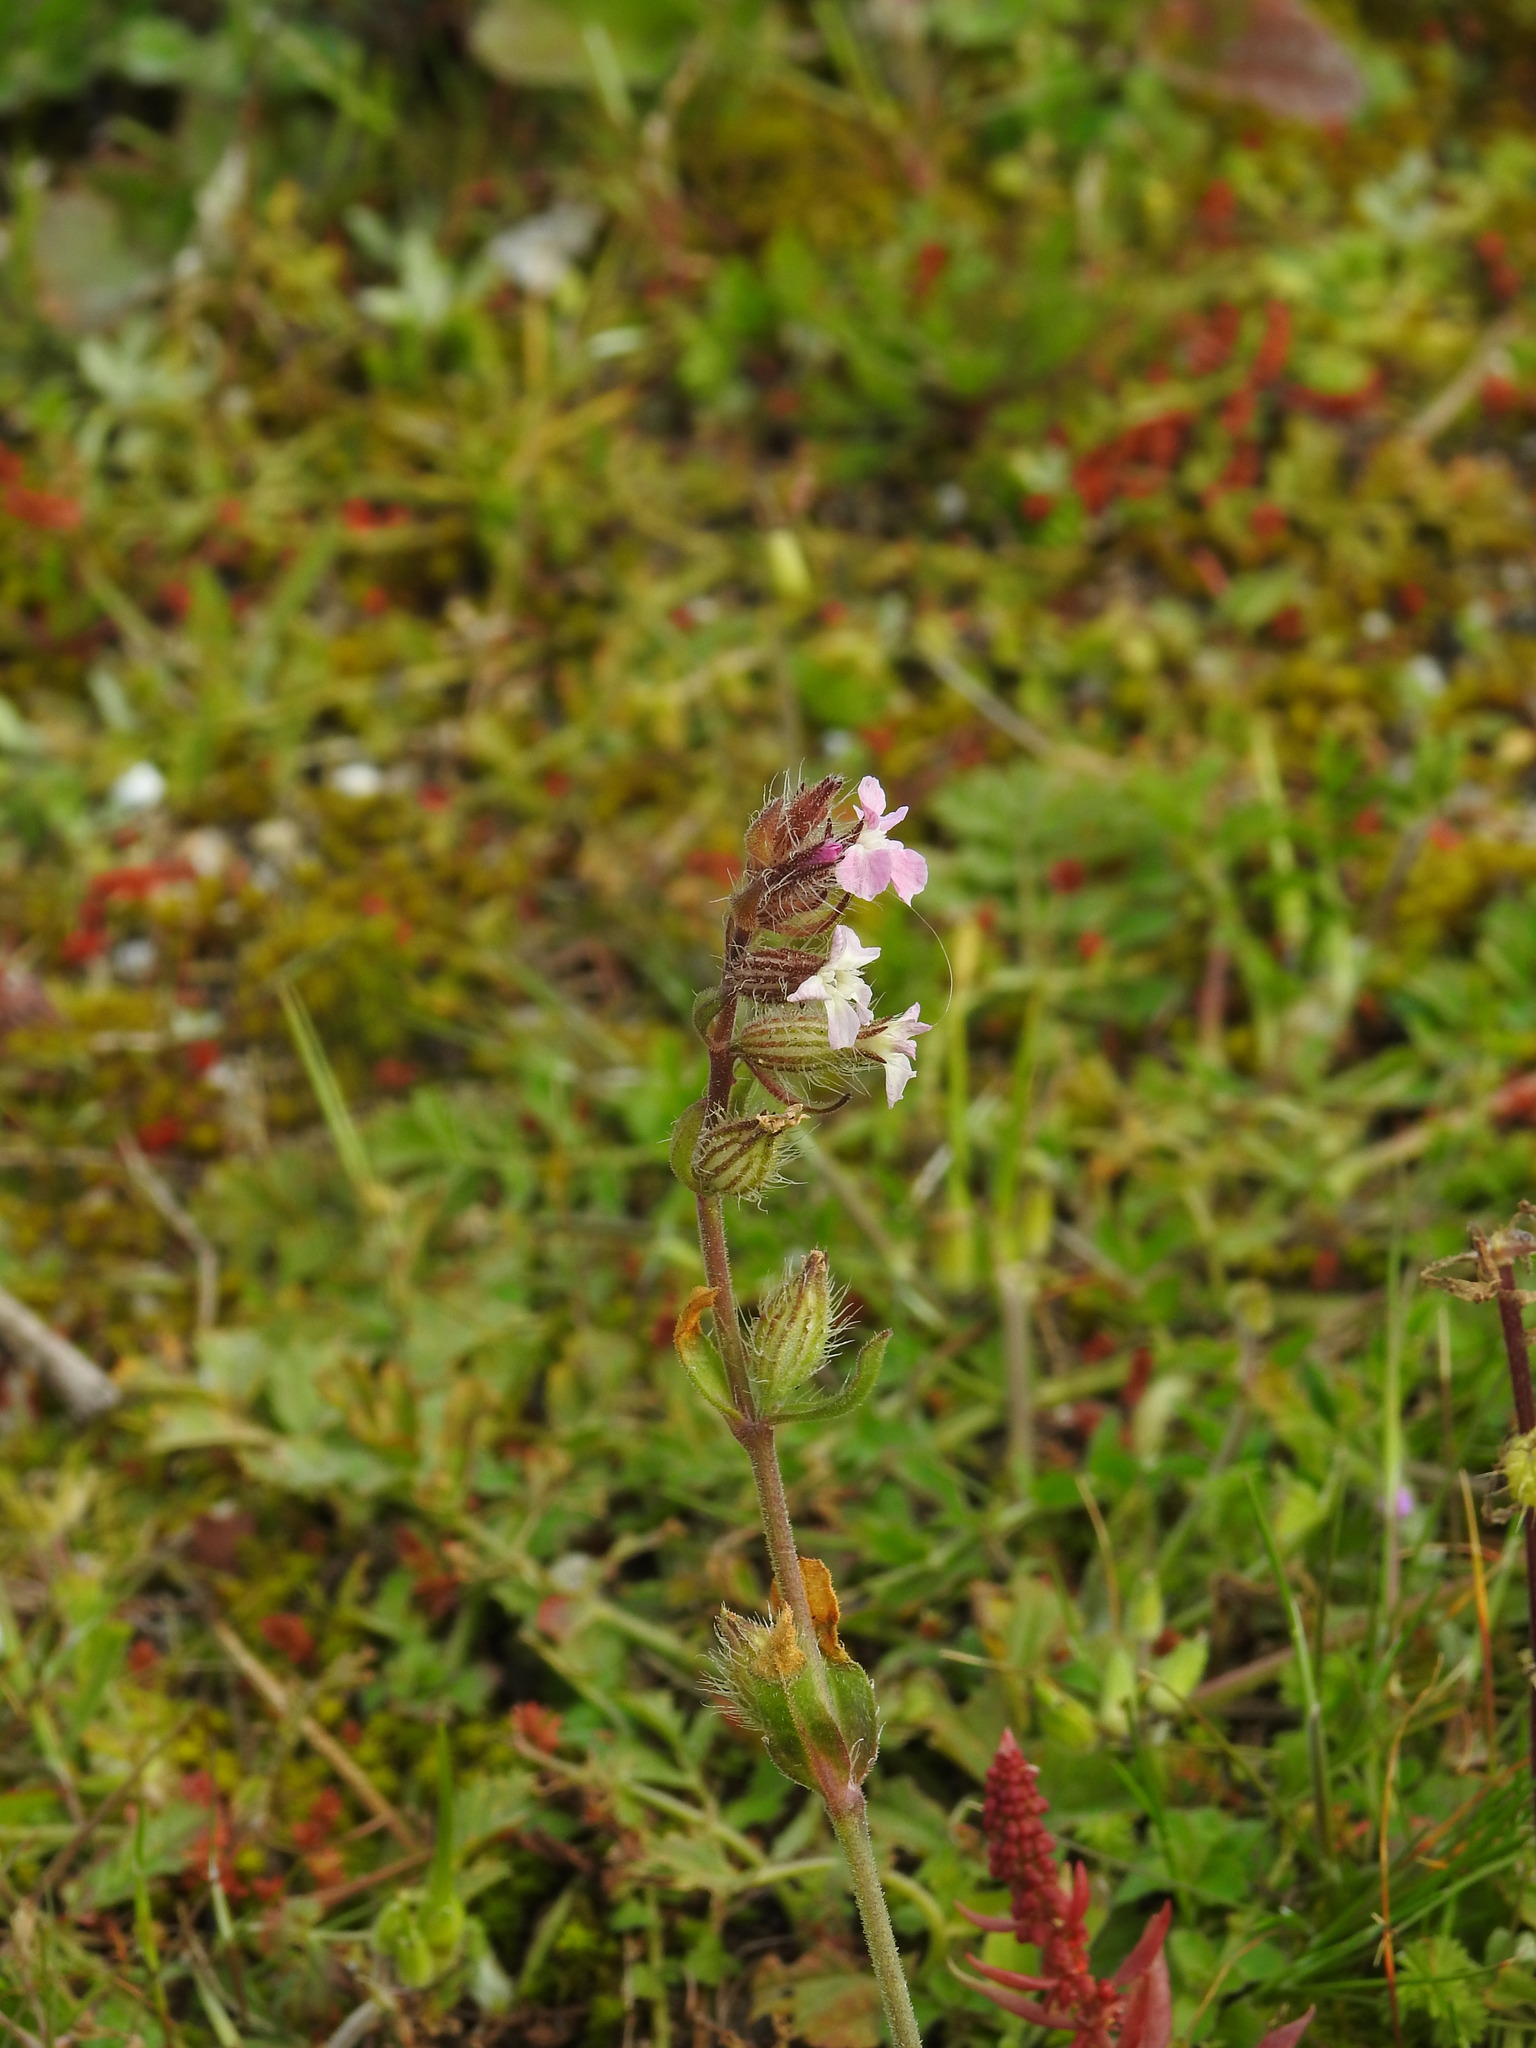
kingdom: Plantae
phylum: Tracheophyta
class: Magnoliopsida
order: Caryophyllales
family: Caryophyllaceae
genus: Silene
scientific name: Silene gallica
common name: Small-flowered catchfly
